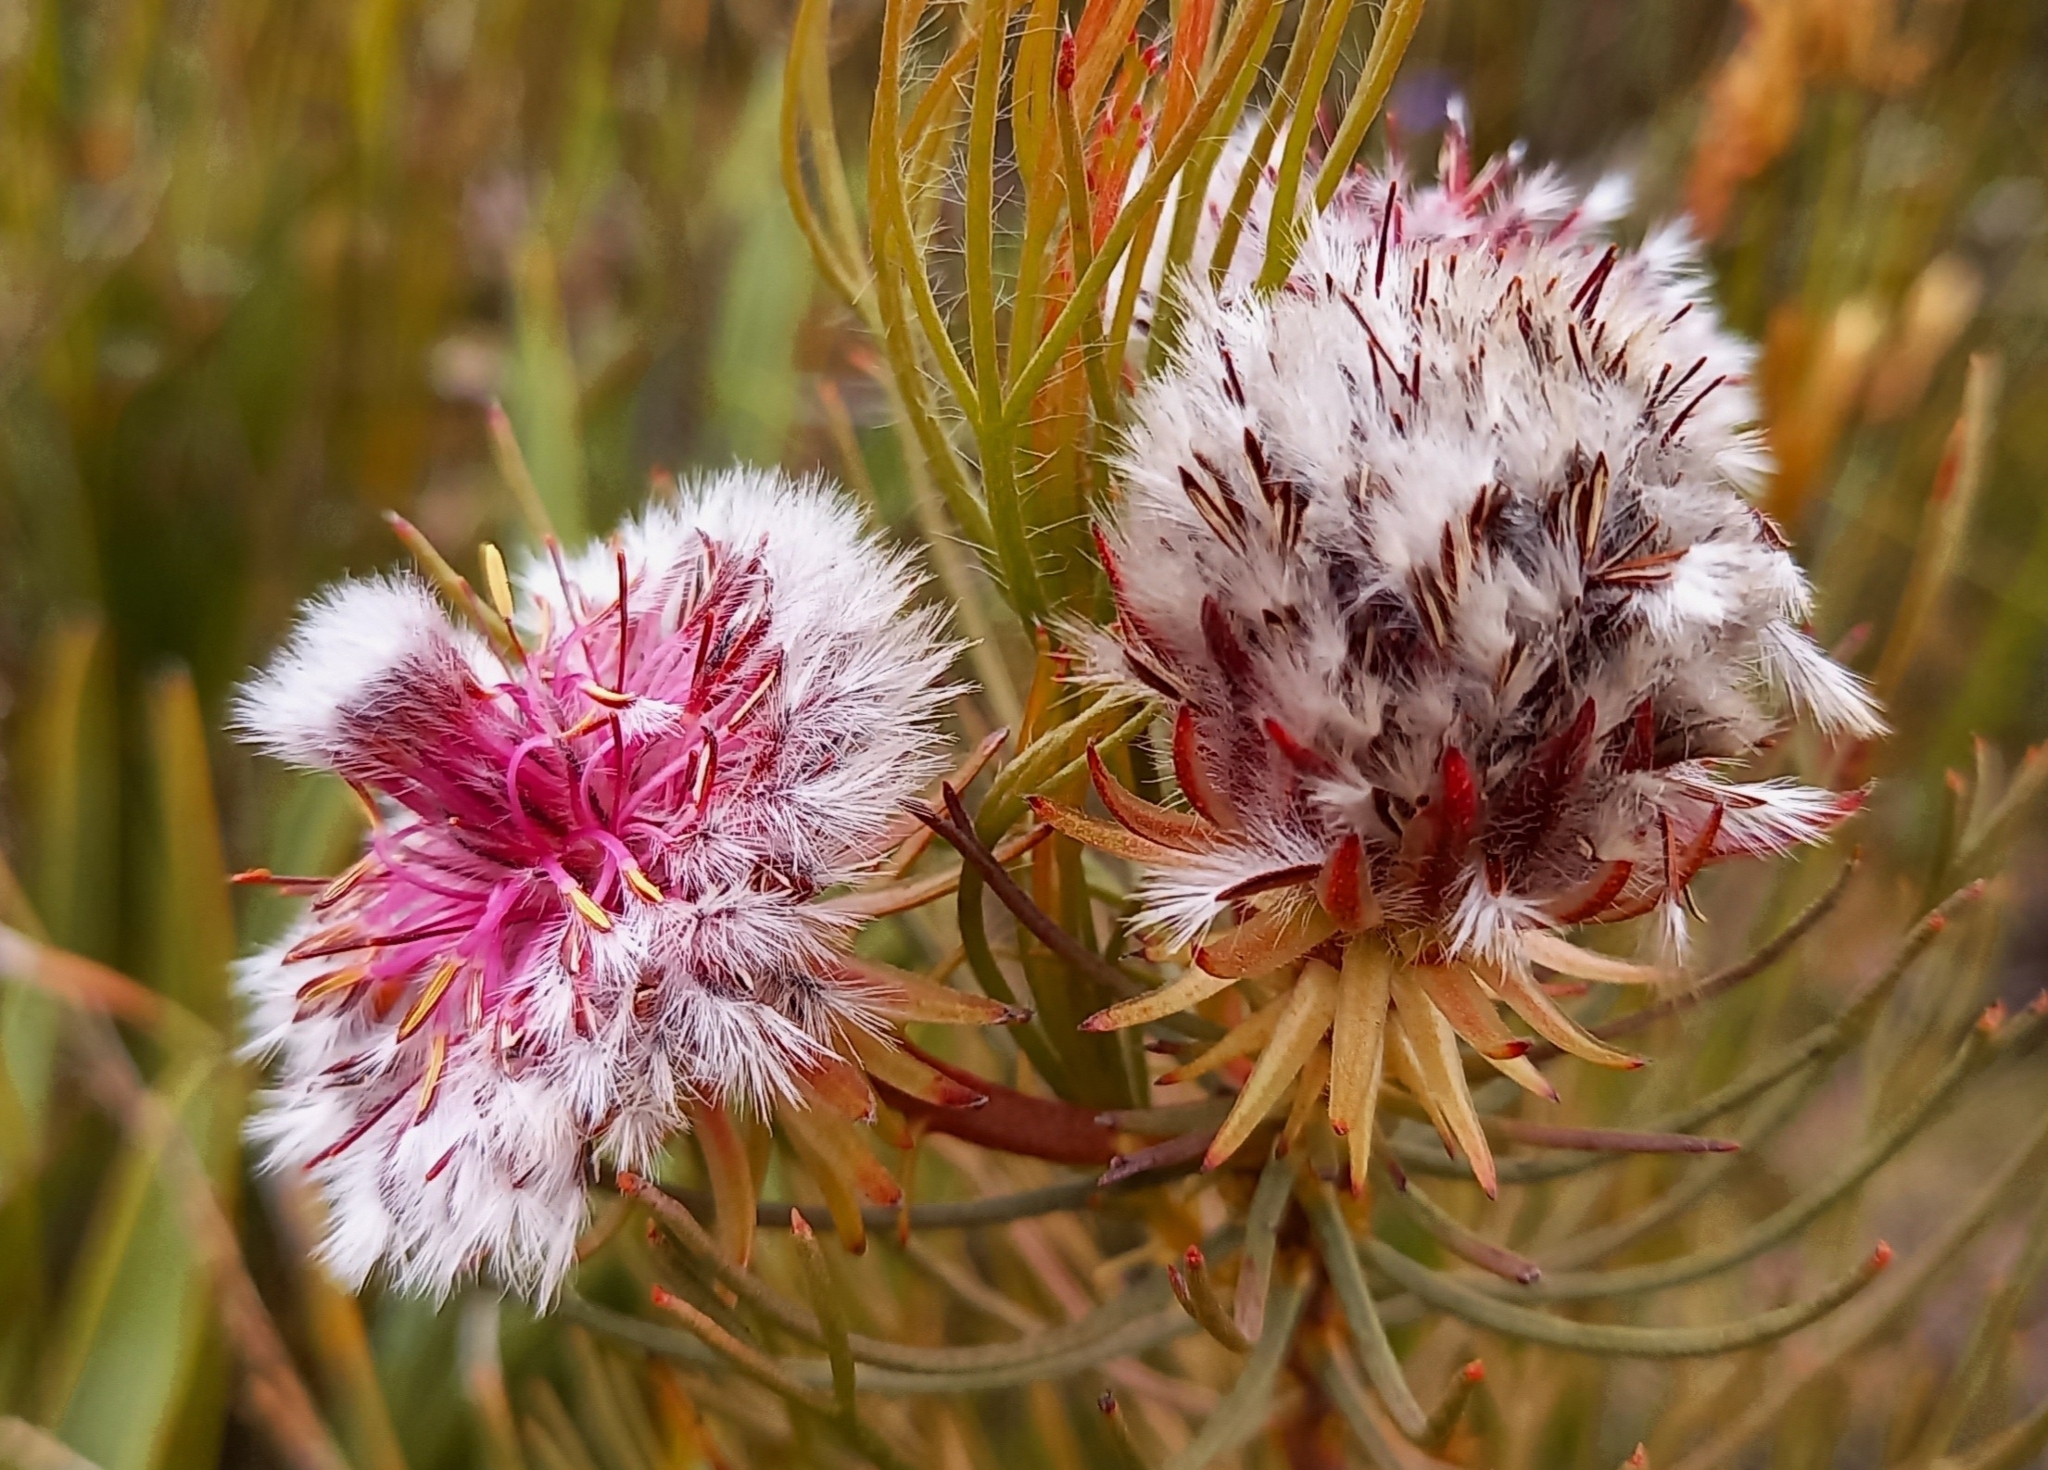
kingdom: Plantae
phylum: Tracheophyta
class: Magnoliopsida
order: Proteales
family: Proteaceae
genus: Serruria
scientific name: Serruria phylicoides
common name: Bearded spiderhead
